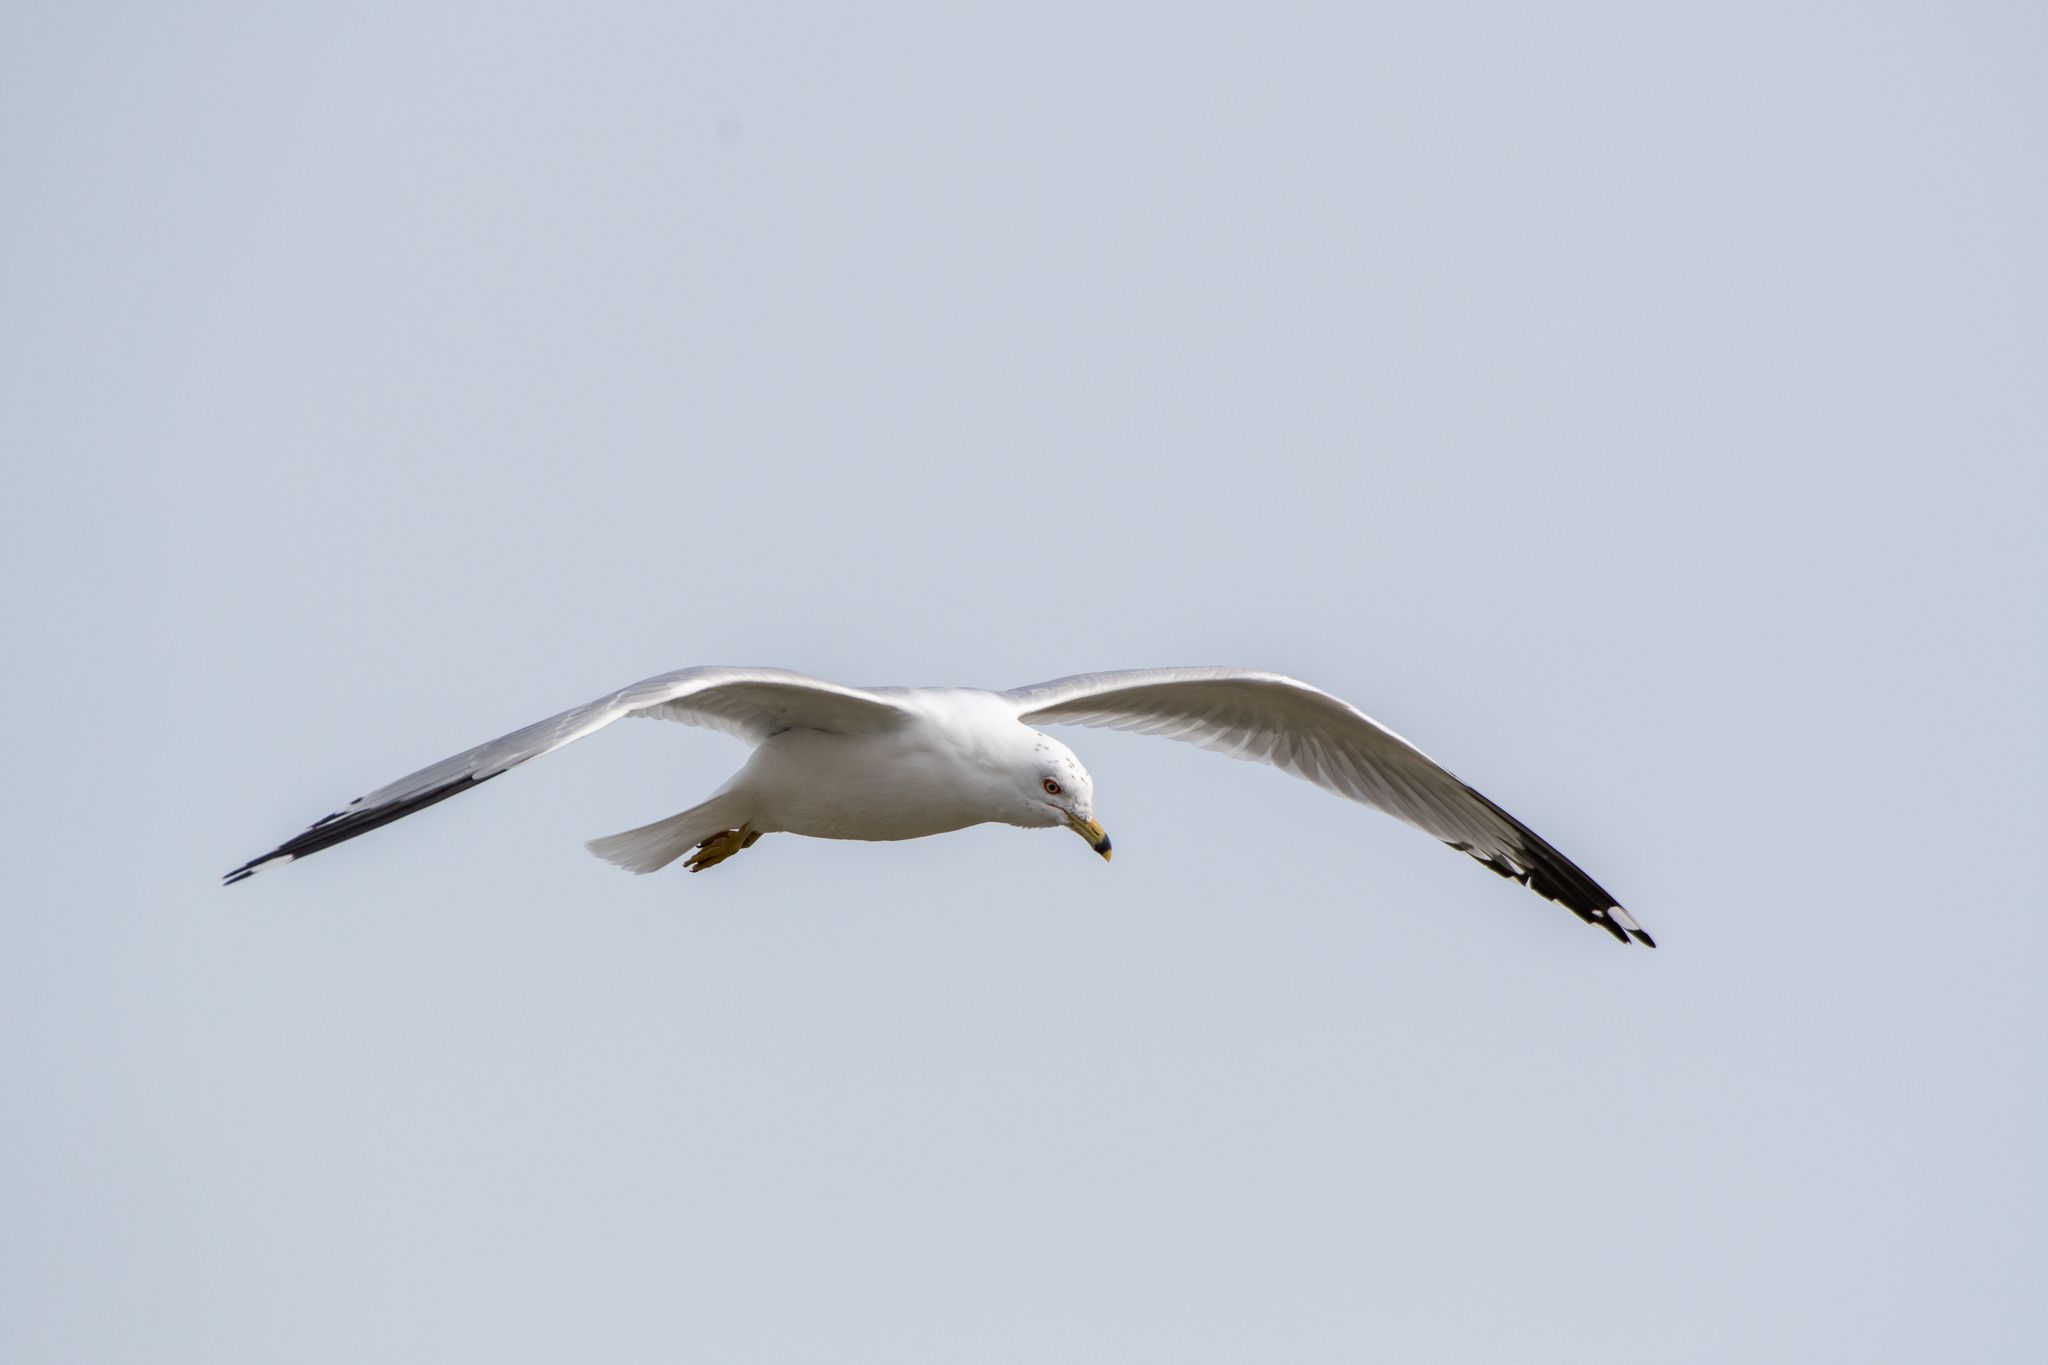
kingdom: Animalia
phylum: Chordata
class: Aves
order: Charadriiformes
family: Laridae
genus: Larus
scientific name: Larus delawarensis
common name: Ring-billed gull
